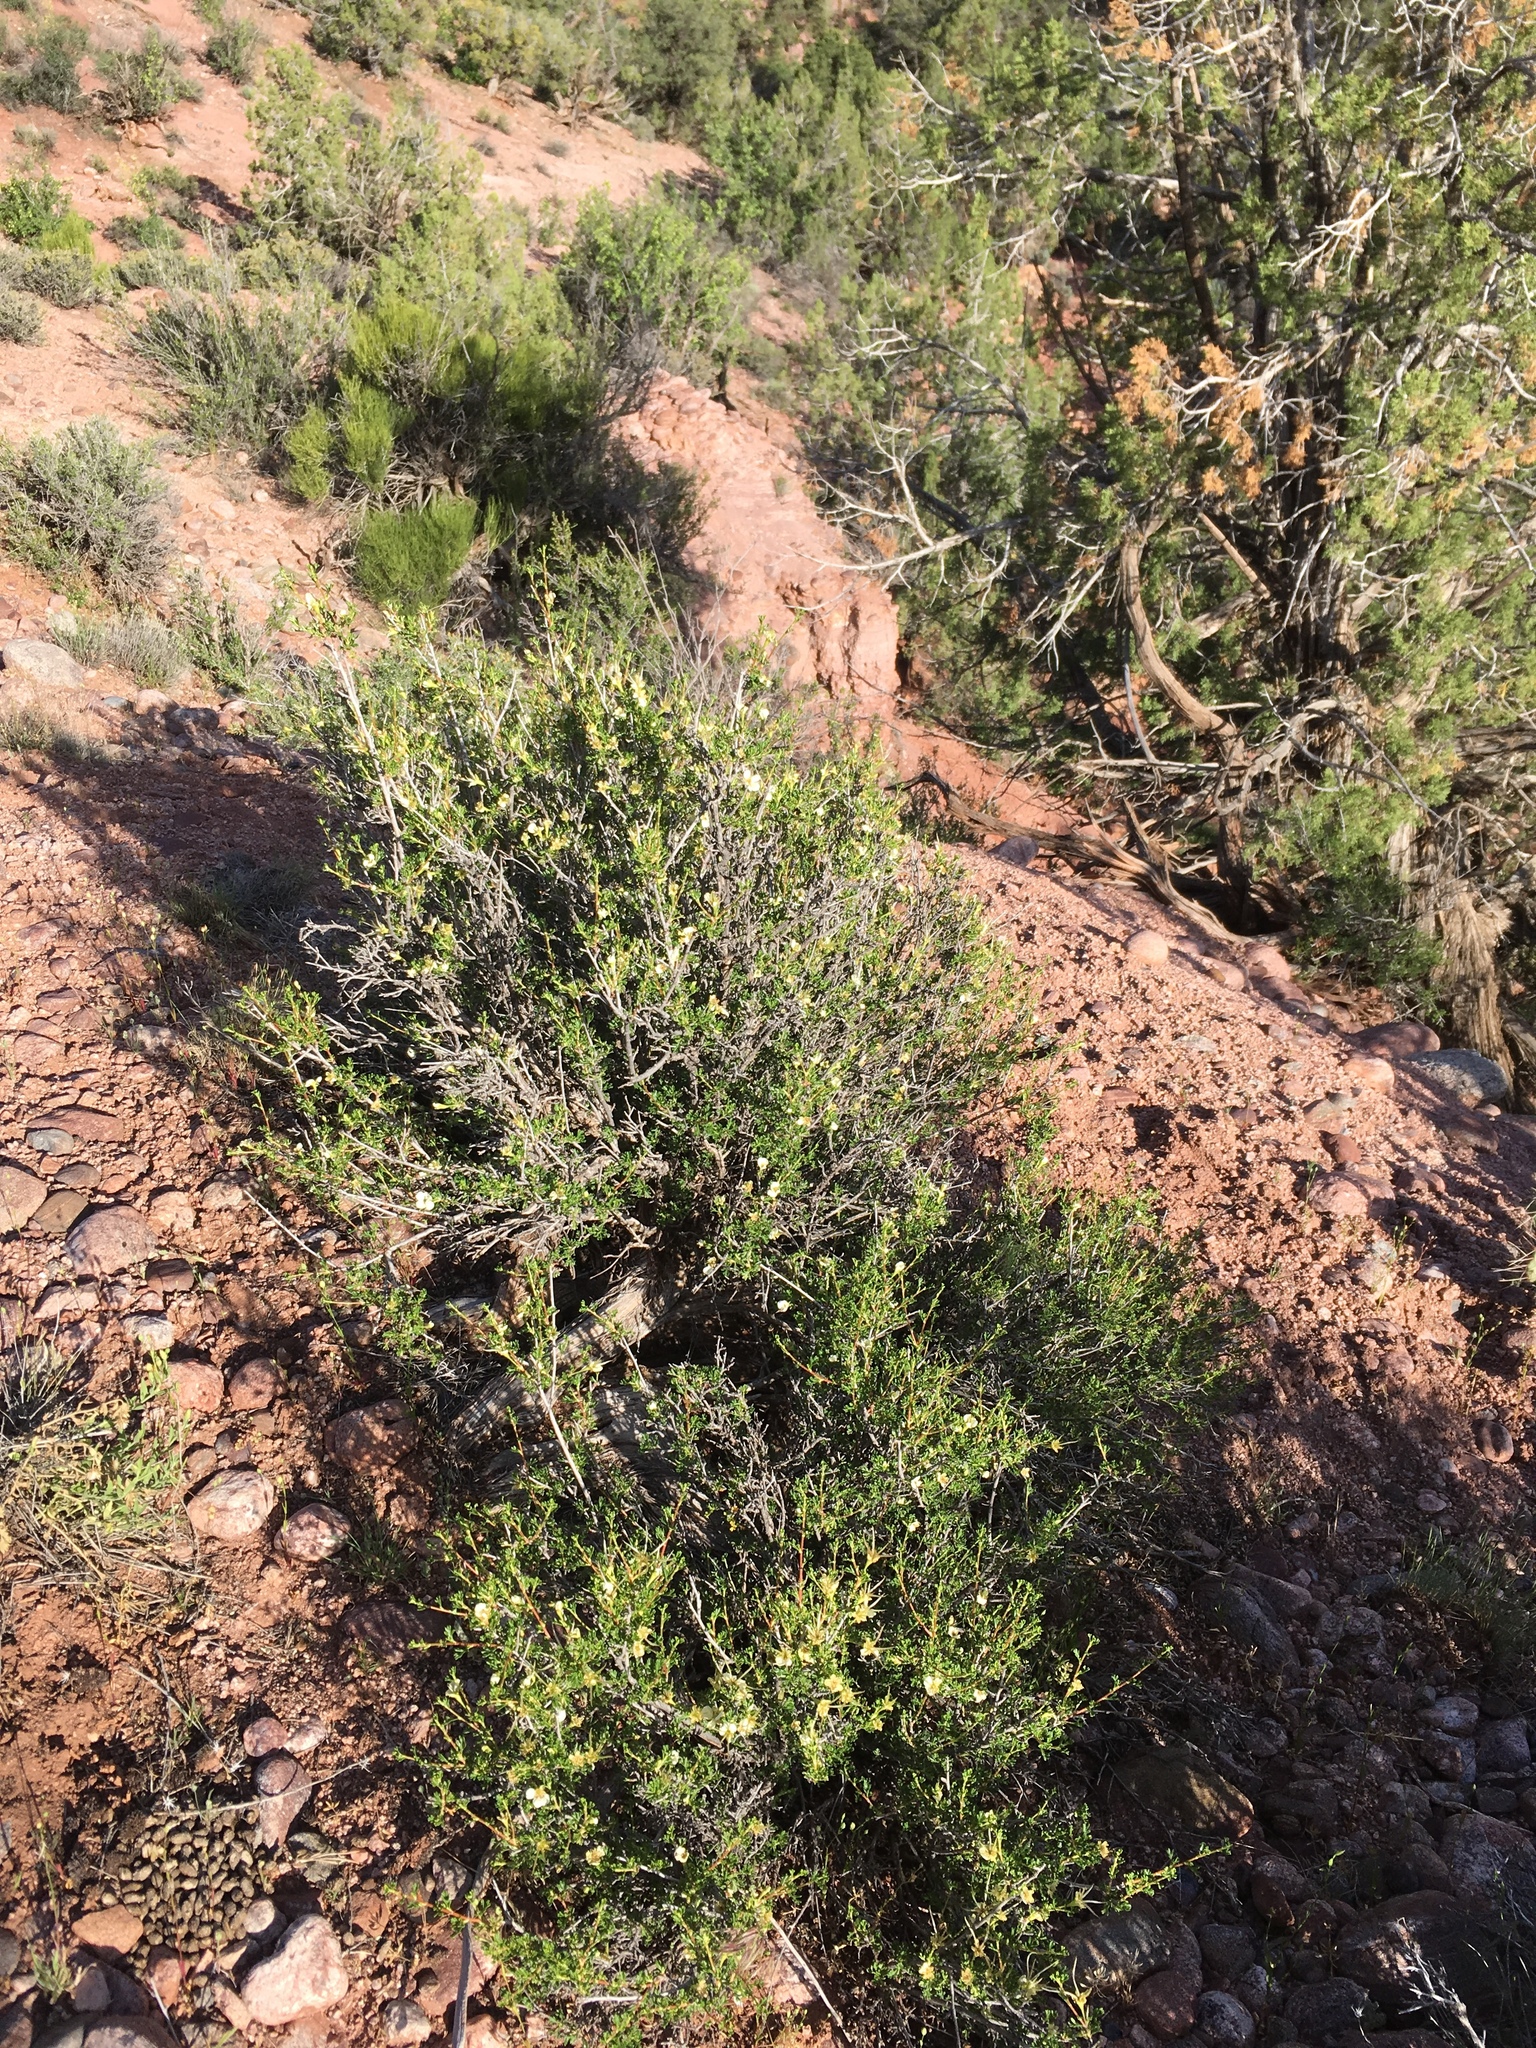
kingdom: Plantae
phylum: Tracheophyta
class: Magnoliopsida
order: Rosales
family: Rosaceae
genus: Purshia
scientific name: Purshia stansburiana
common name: Stansbury's cliffrose
